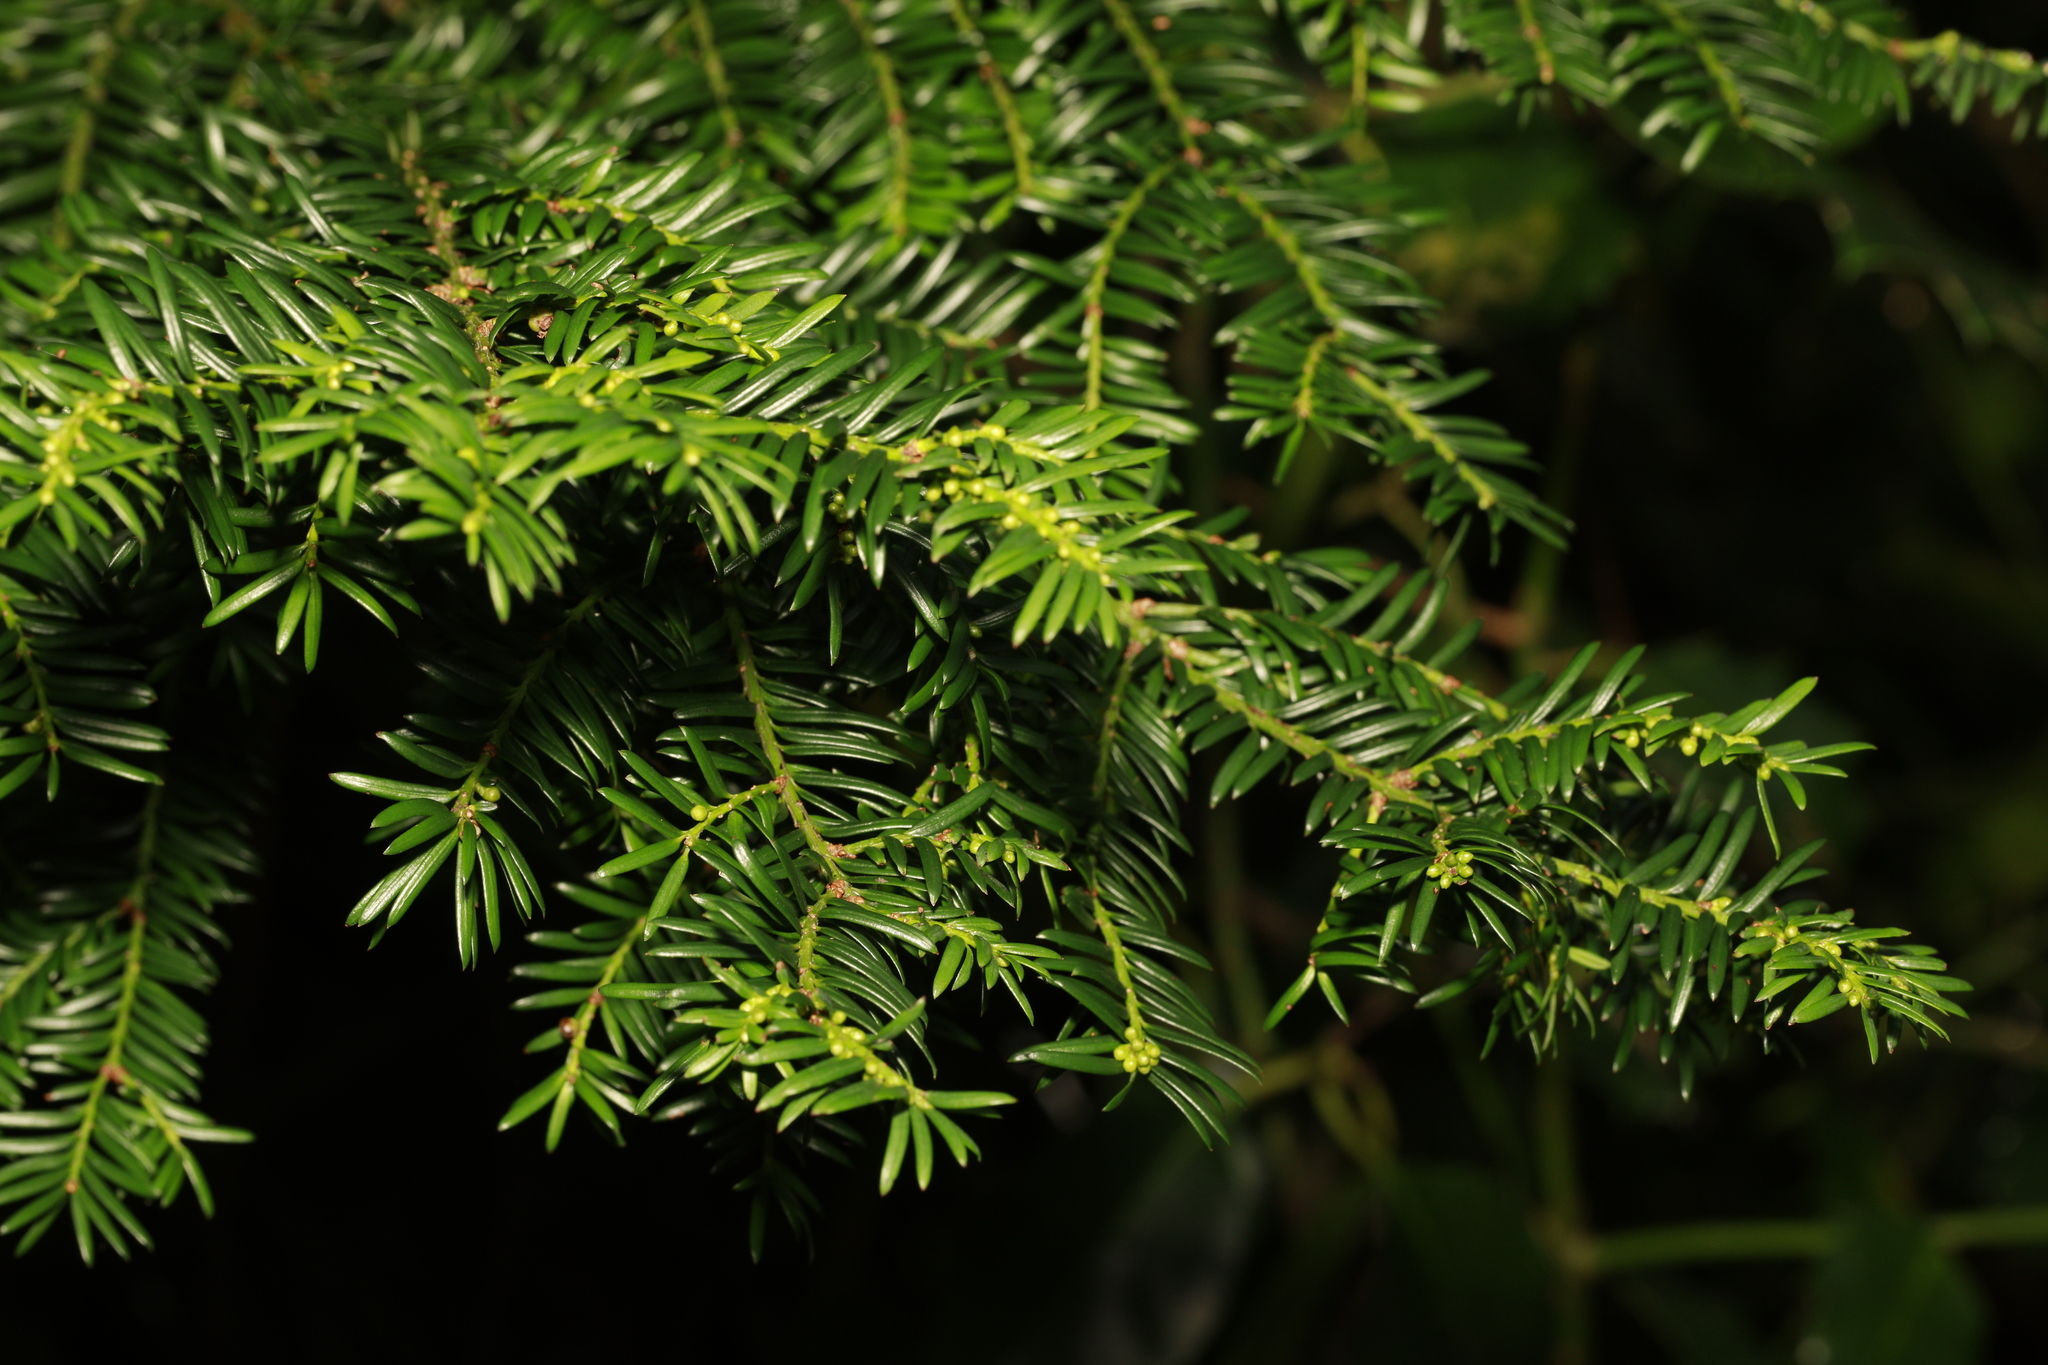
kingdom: Plantae
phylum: Tracheophyta
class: Pinopsida
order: Pinales
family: Taxaceae
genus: Taxus
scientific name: Taxus baccata
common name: Yew
